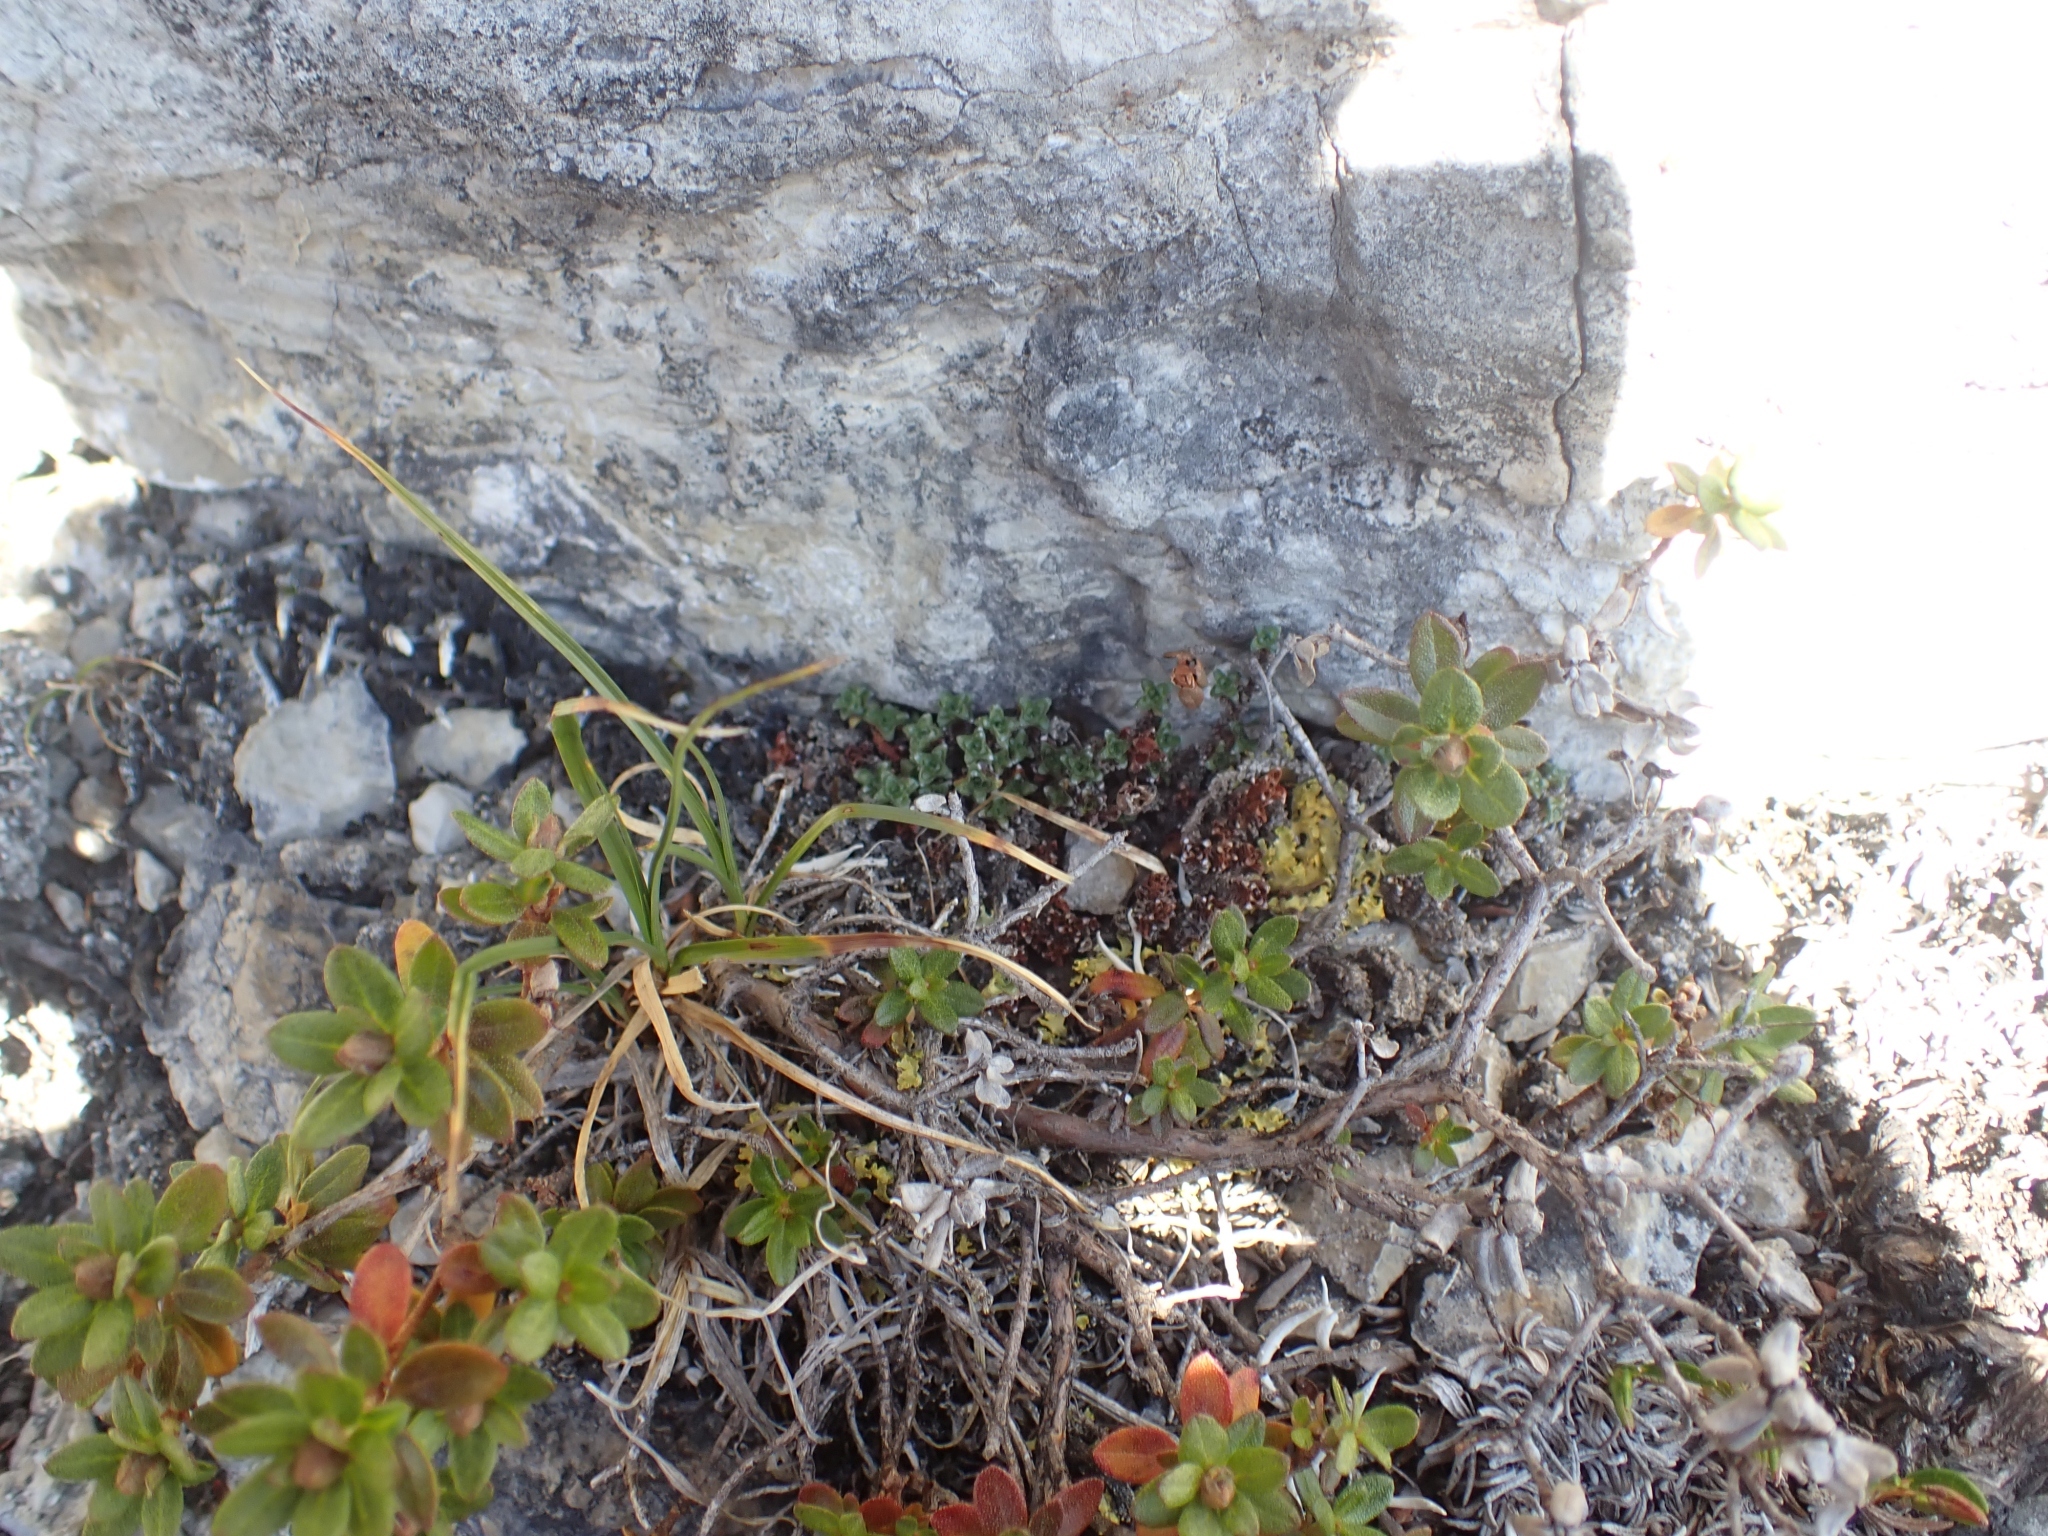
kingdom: Plantae
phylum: Tracheophyta
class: Magnoliopsida
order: Saxifragales
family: Saxifragaceae
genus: Saxifraga
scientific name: Saxifraga oppositifolia
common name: Purple saxifrage
